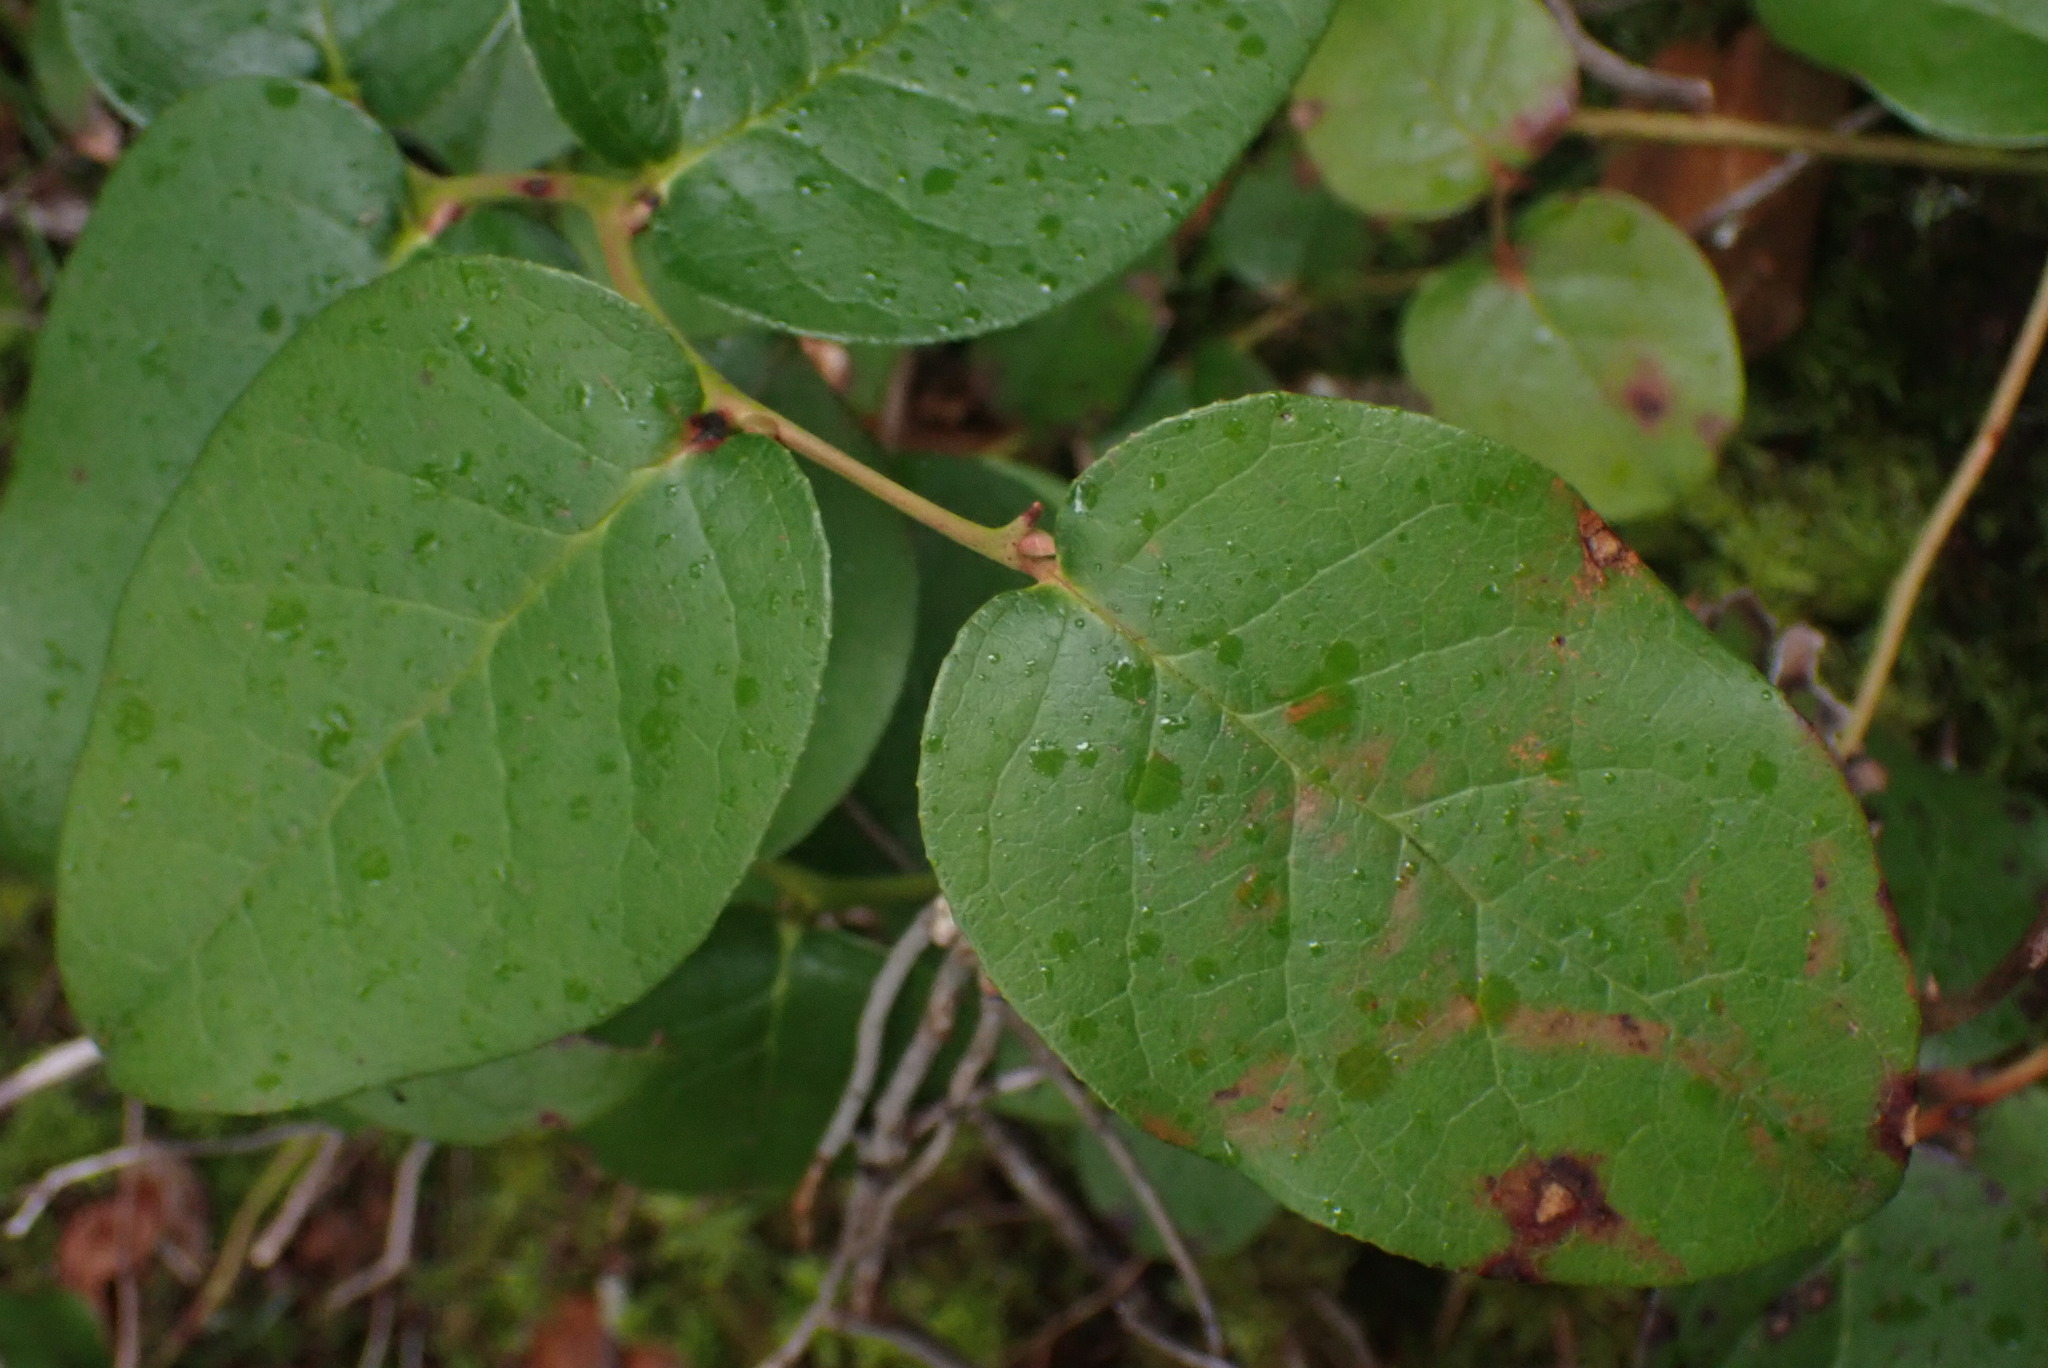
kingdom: Plantae
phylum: Tracheophyta
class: Magnoliopsida
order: Ericales
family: Ericaceae
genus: Gaultheria
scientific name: Gaultheria shallon
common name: Shallon
